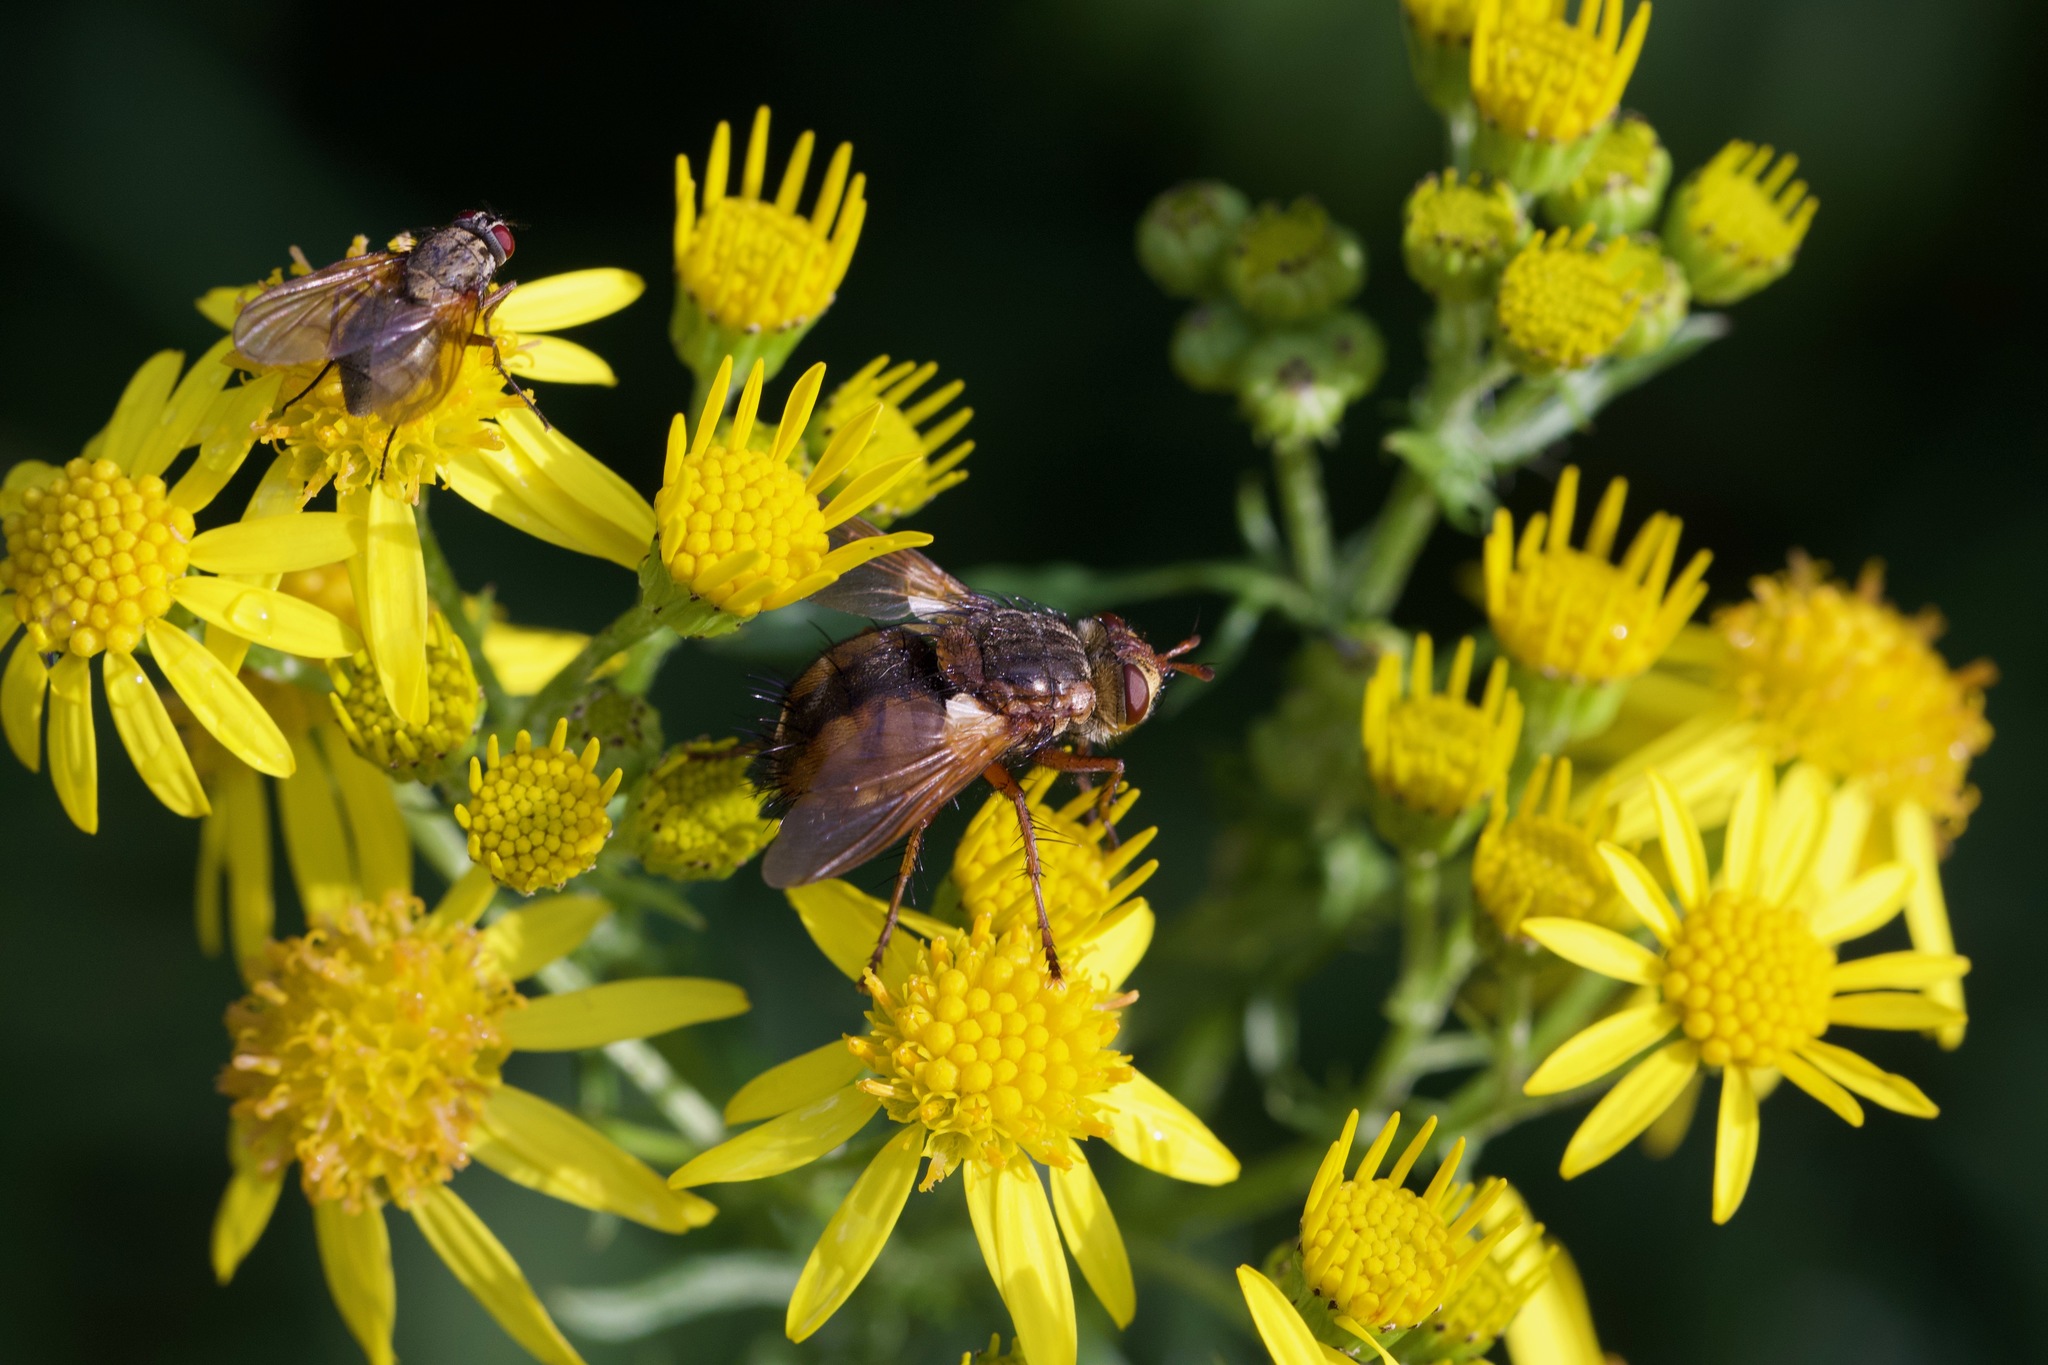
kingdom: Animalia
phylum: Arthropoda
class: Insecta
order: Diptera
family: Tachinidae
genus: Tachina
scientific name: Tachina fera
